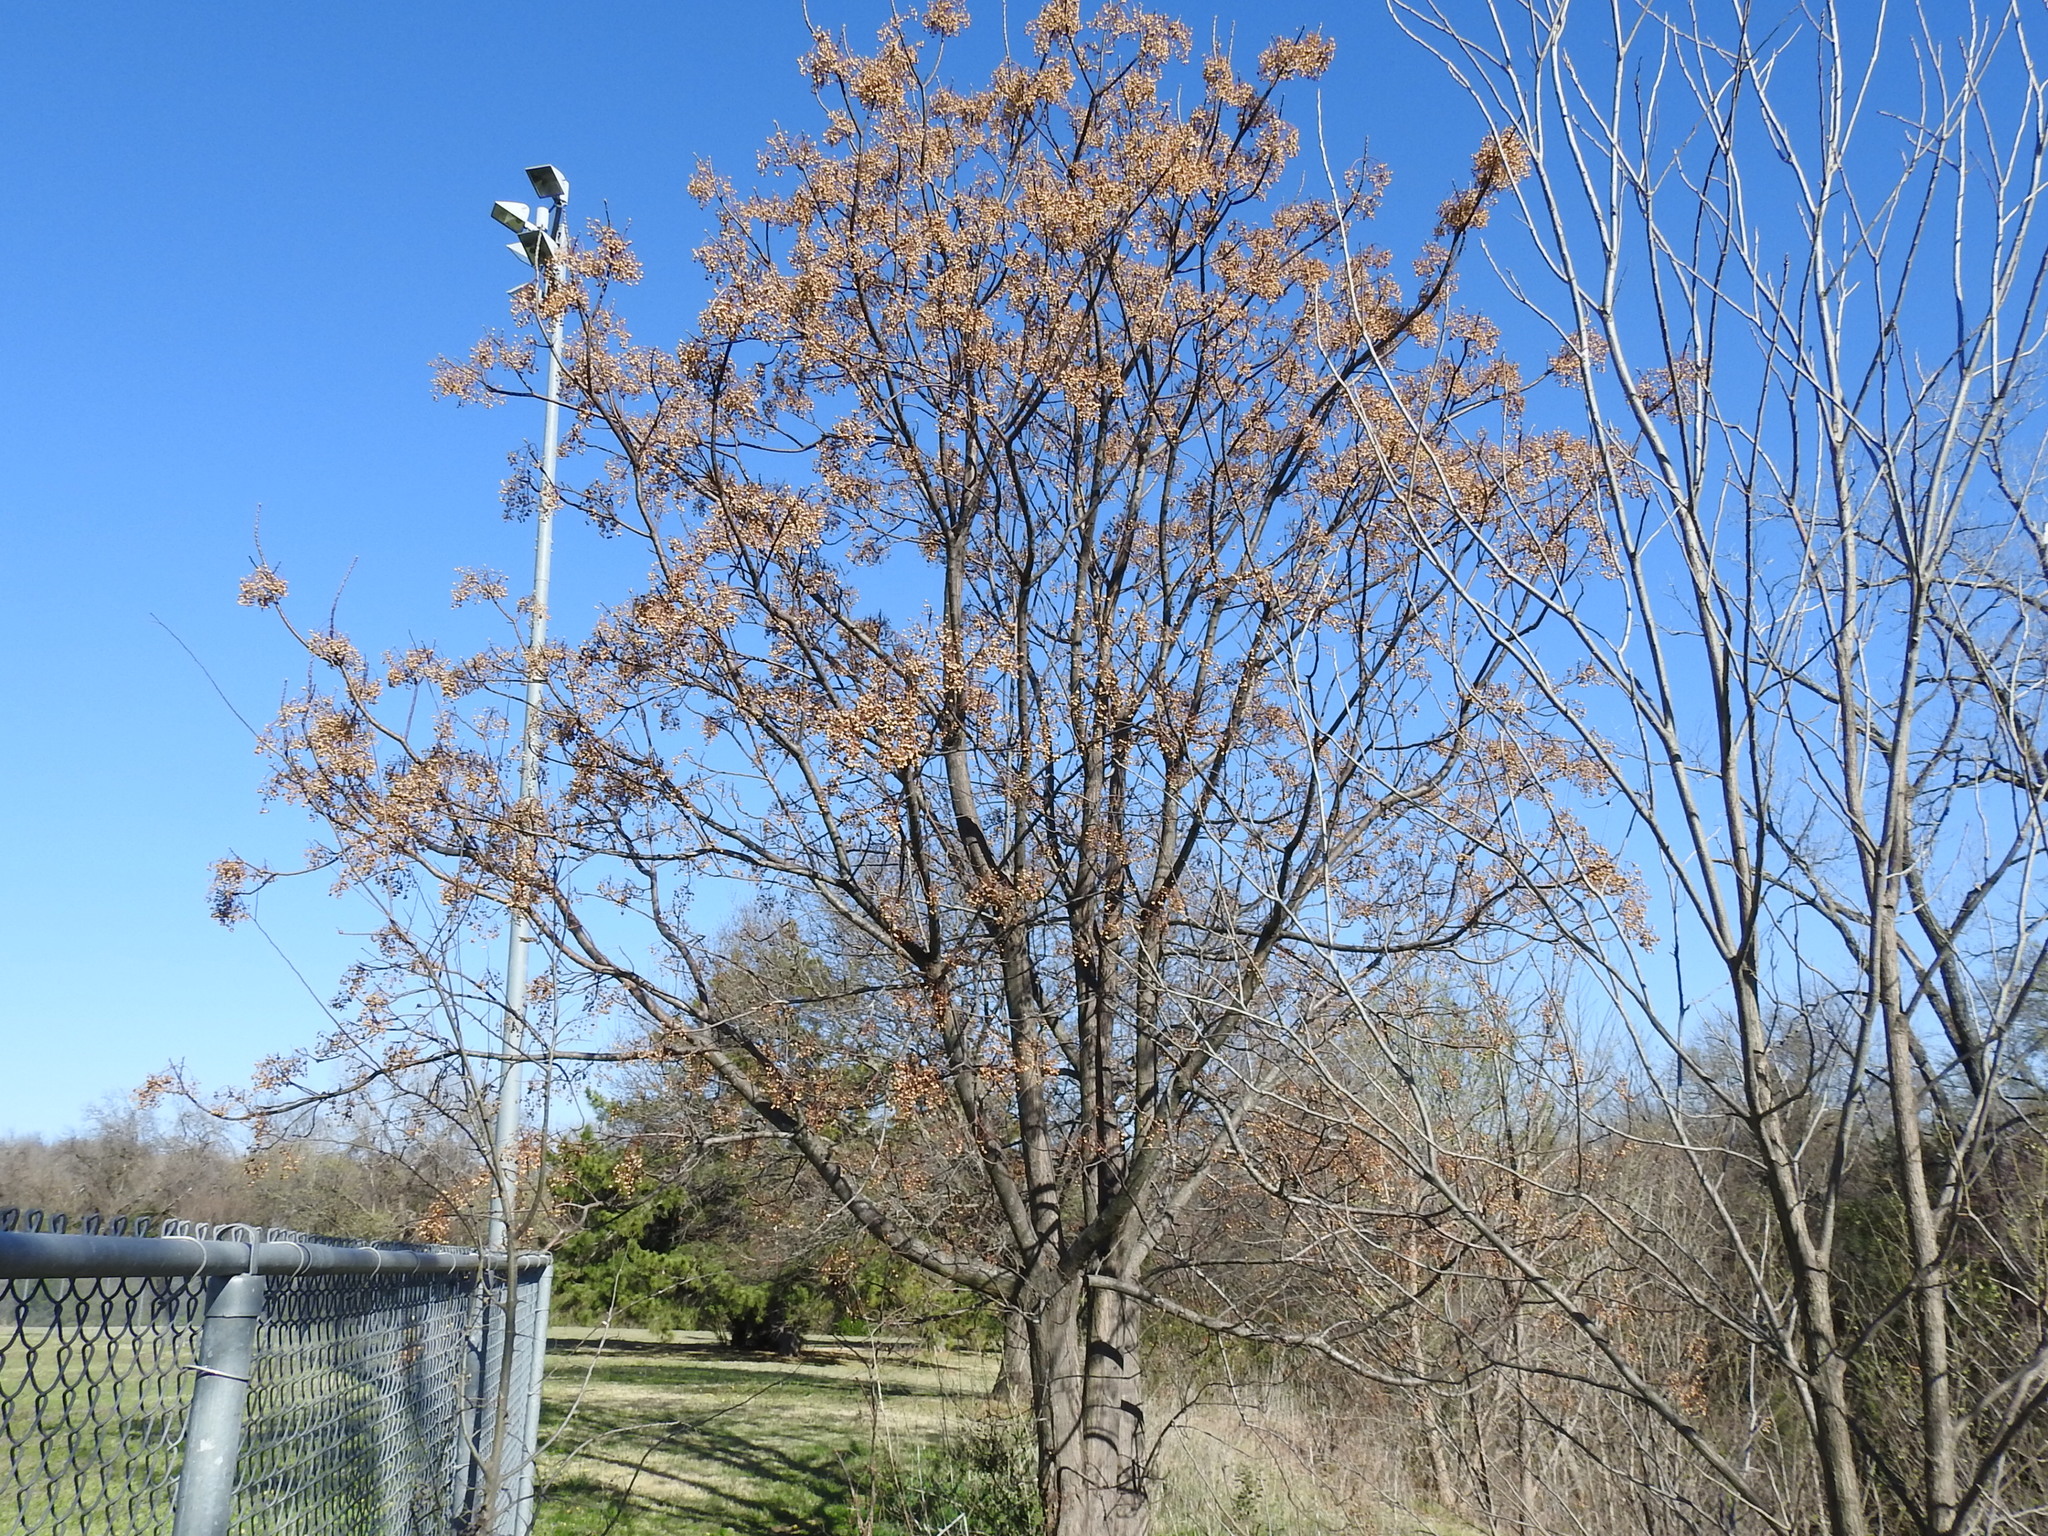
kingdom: Plantae
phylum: Tracheophyta
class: Magnoliopsida
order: Sapindales
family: Meliaceae
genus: Melia
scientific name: Melia azedarach
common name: Chinaberrytree
